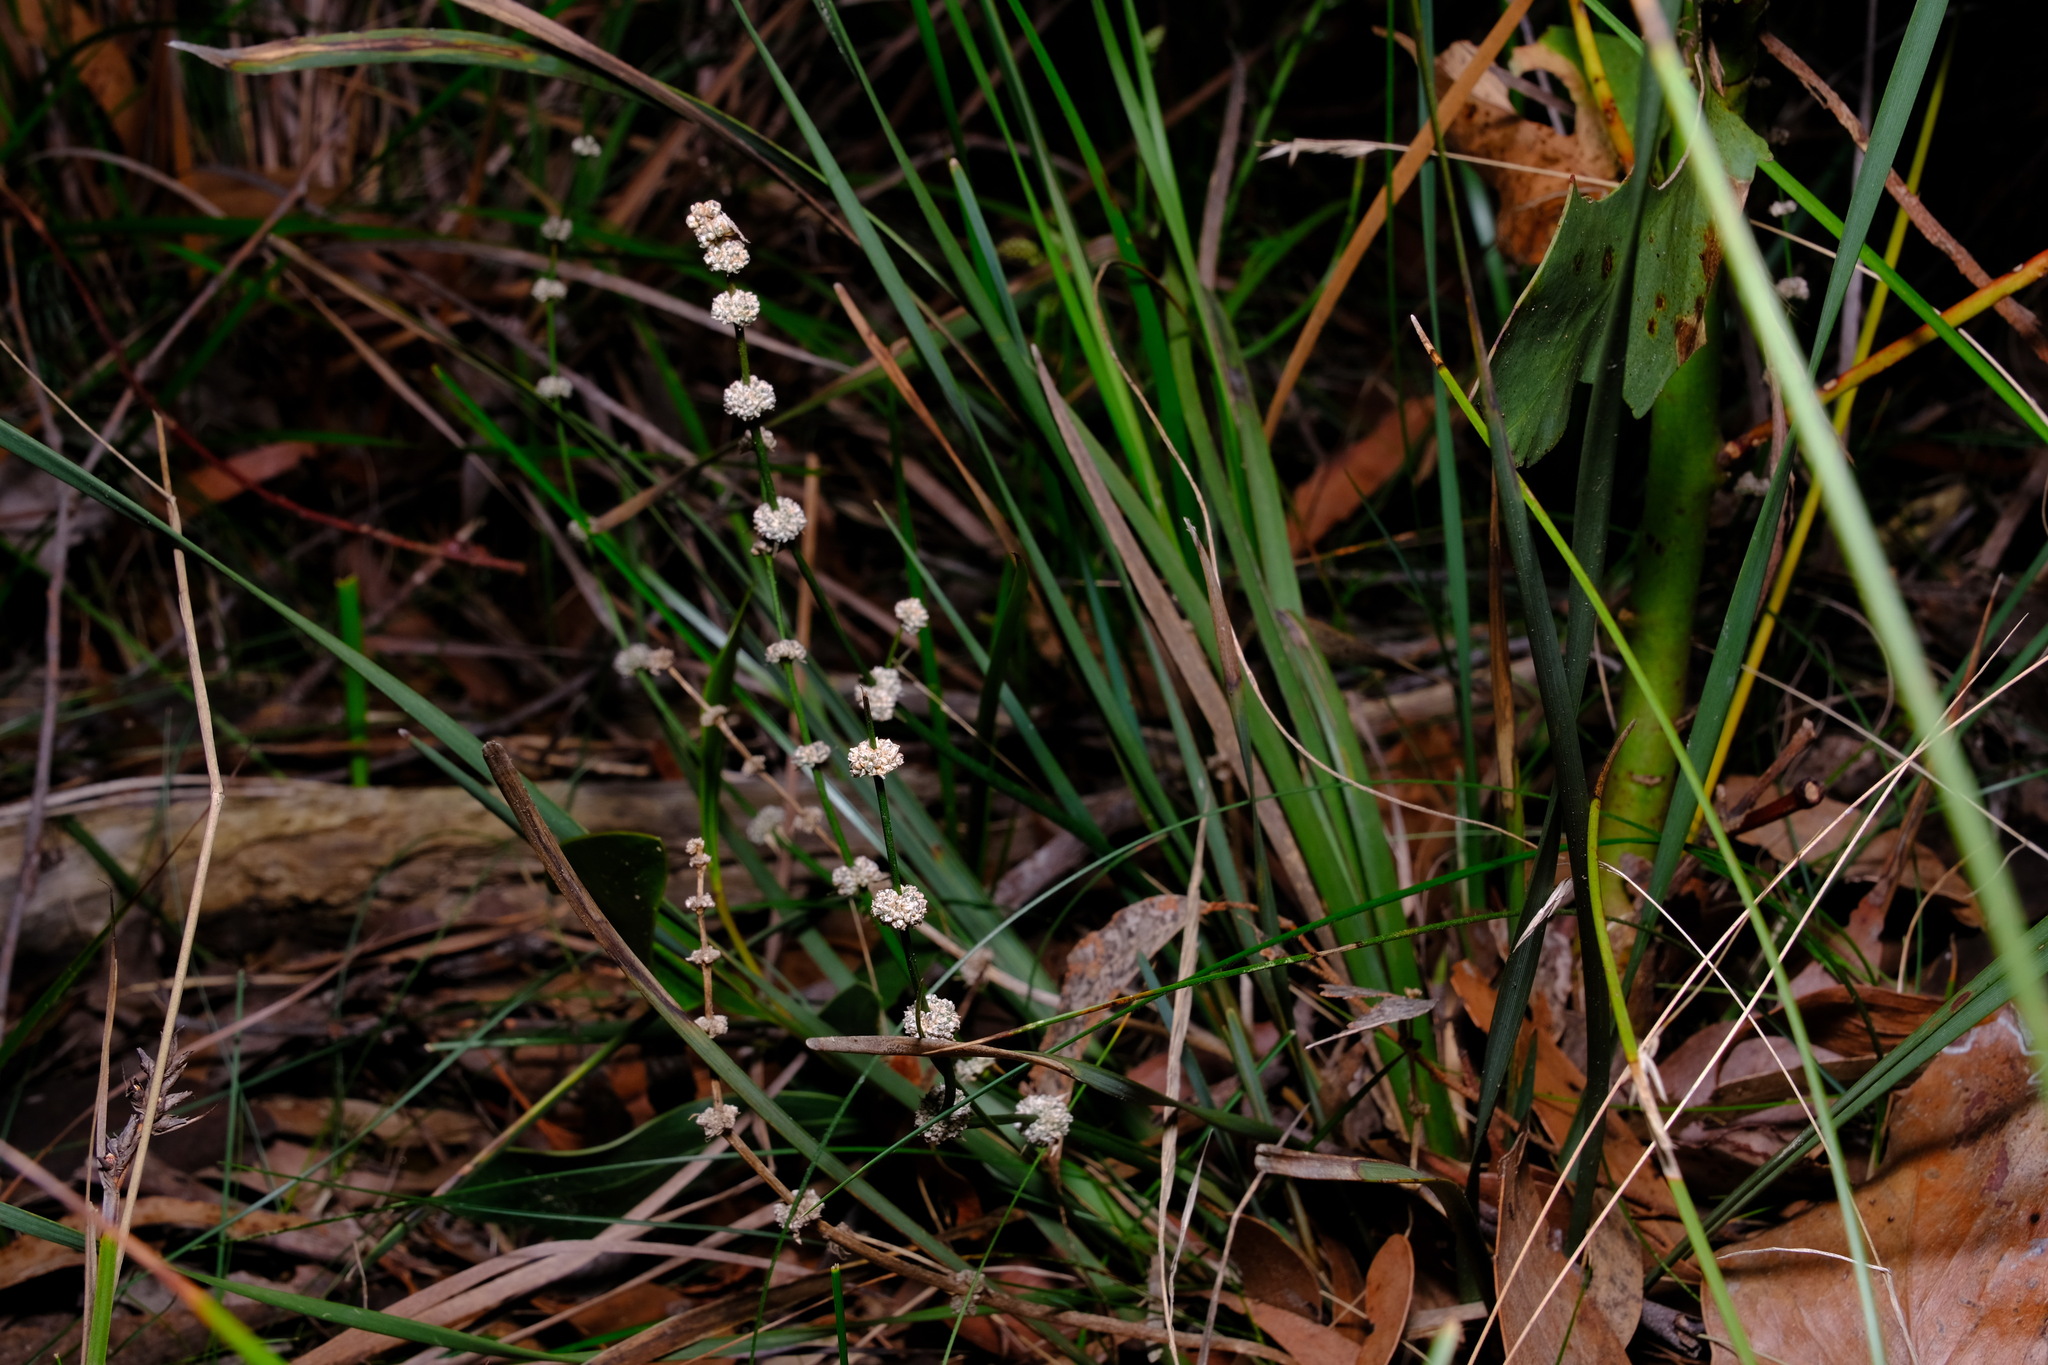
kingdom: Plantae
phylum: Tracheophyta
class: Liliopsida
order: Asparagales
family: Asparagaceae
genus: Lomandra
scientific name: Lomandra multiflora
